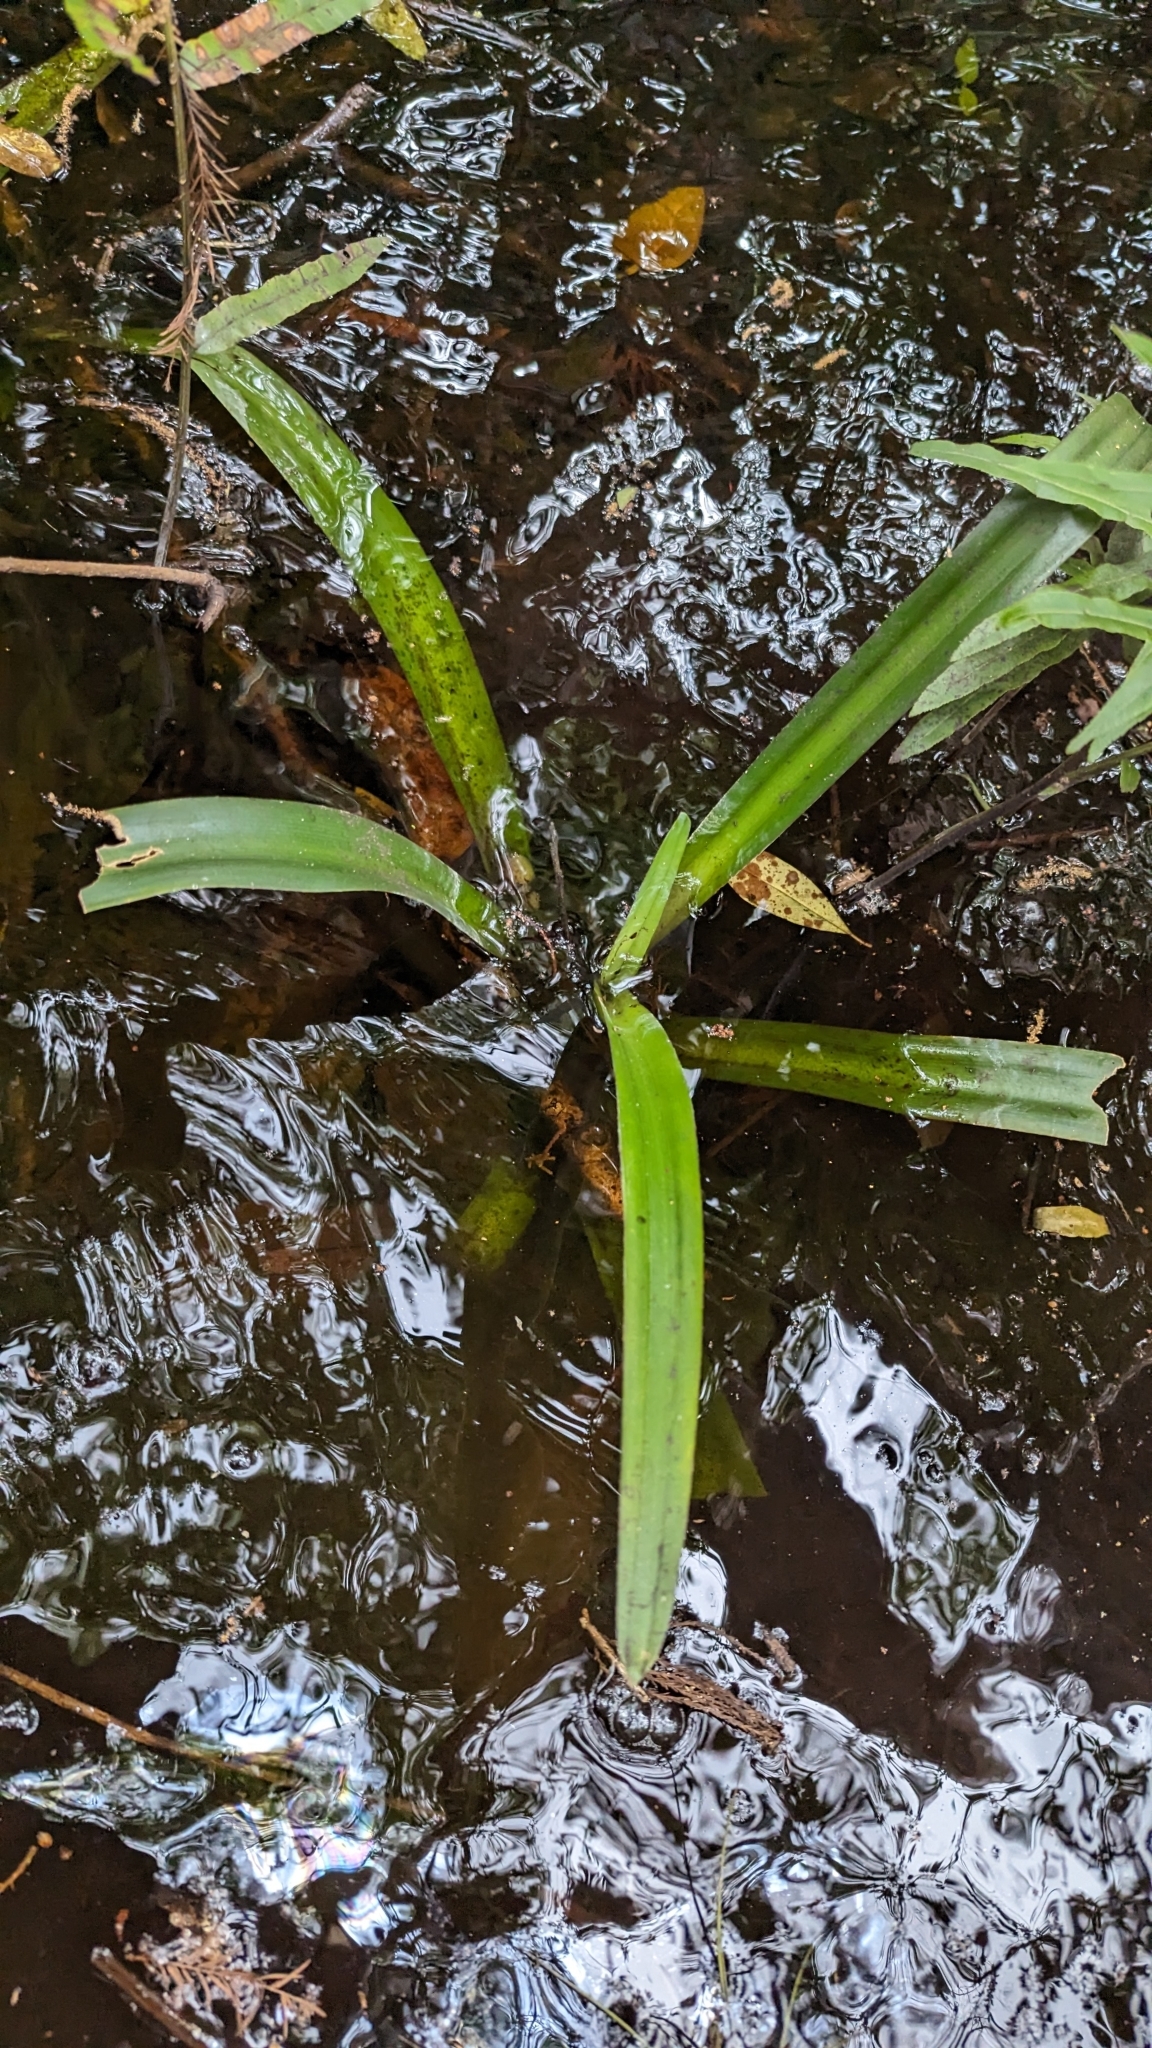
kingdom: Plantae
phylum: Tracheophyta
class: Liliopsida
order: Asparagales
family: Amaryllidaceae
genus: Crinum
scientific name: Crinum americanum
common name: Florida swamp-lily
